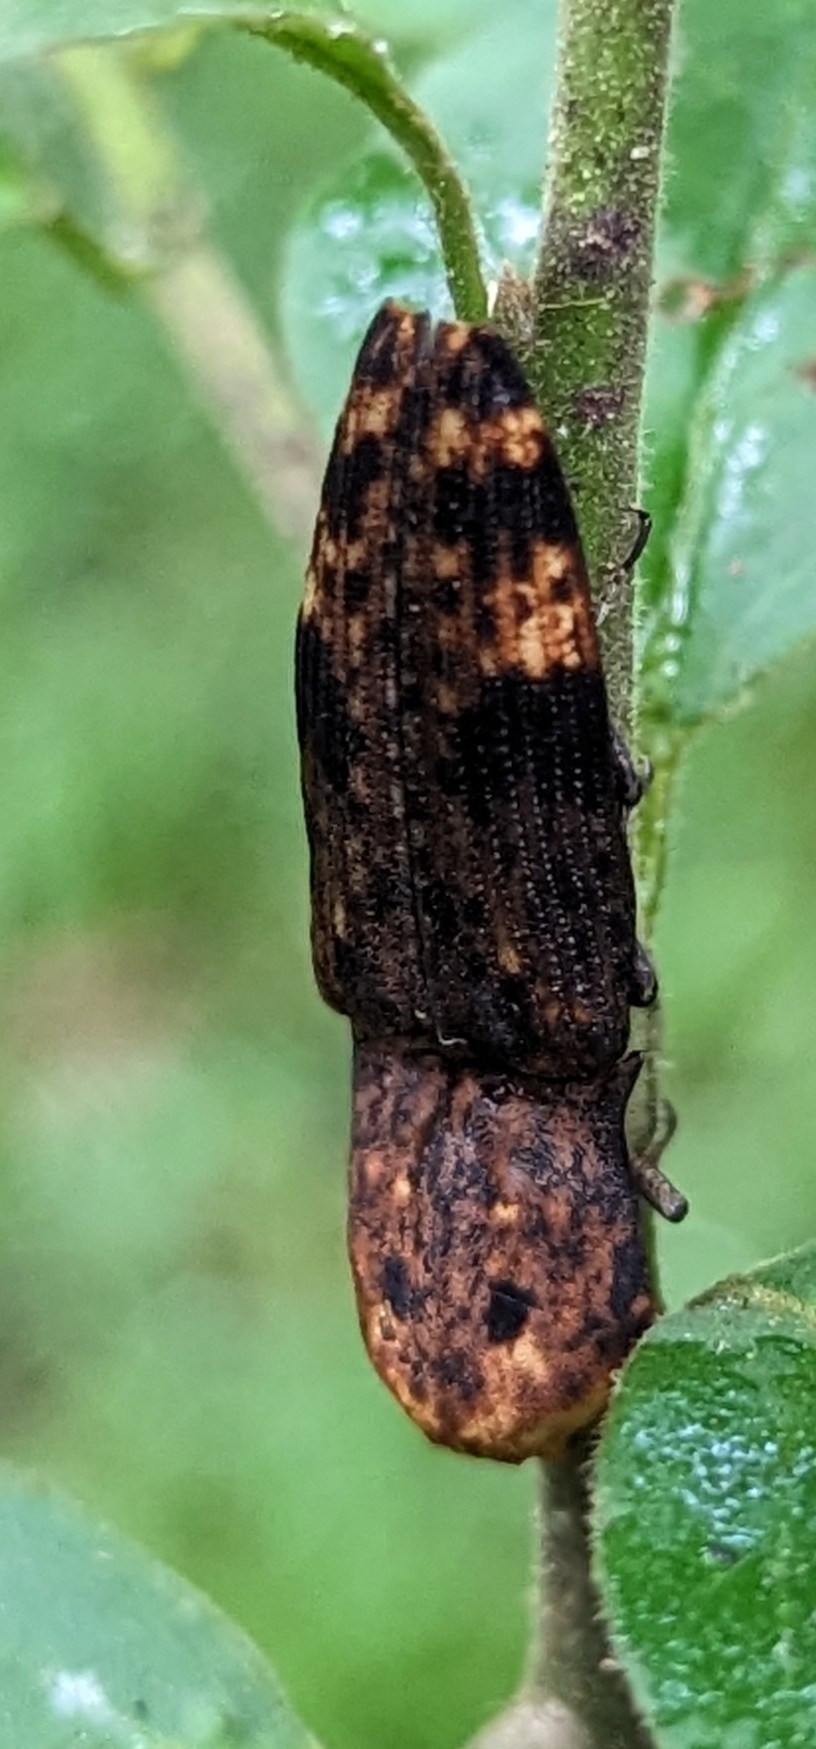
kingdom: Animalia
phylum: Arthropoda
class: Insecta
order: Coleoptera
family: Elateridae
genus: Cryptalaus
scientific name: Cryptalaus alveolatus
